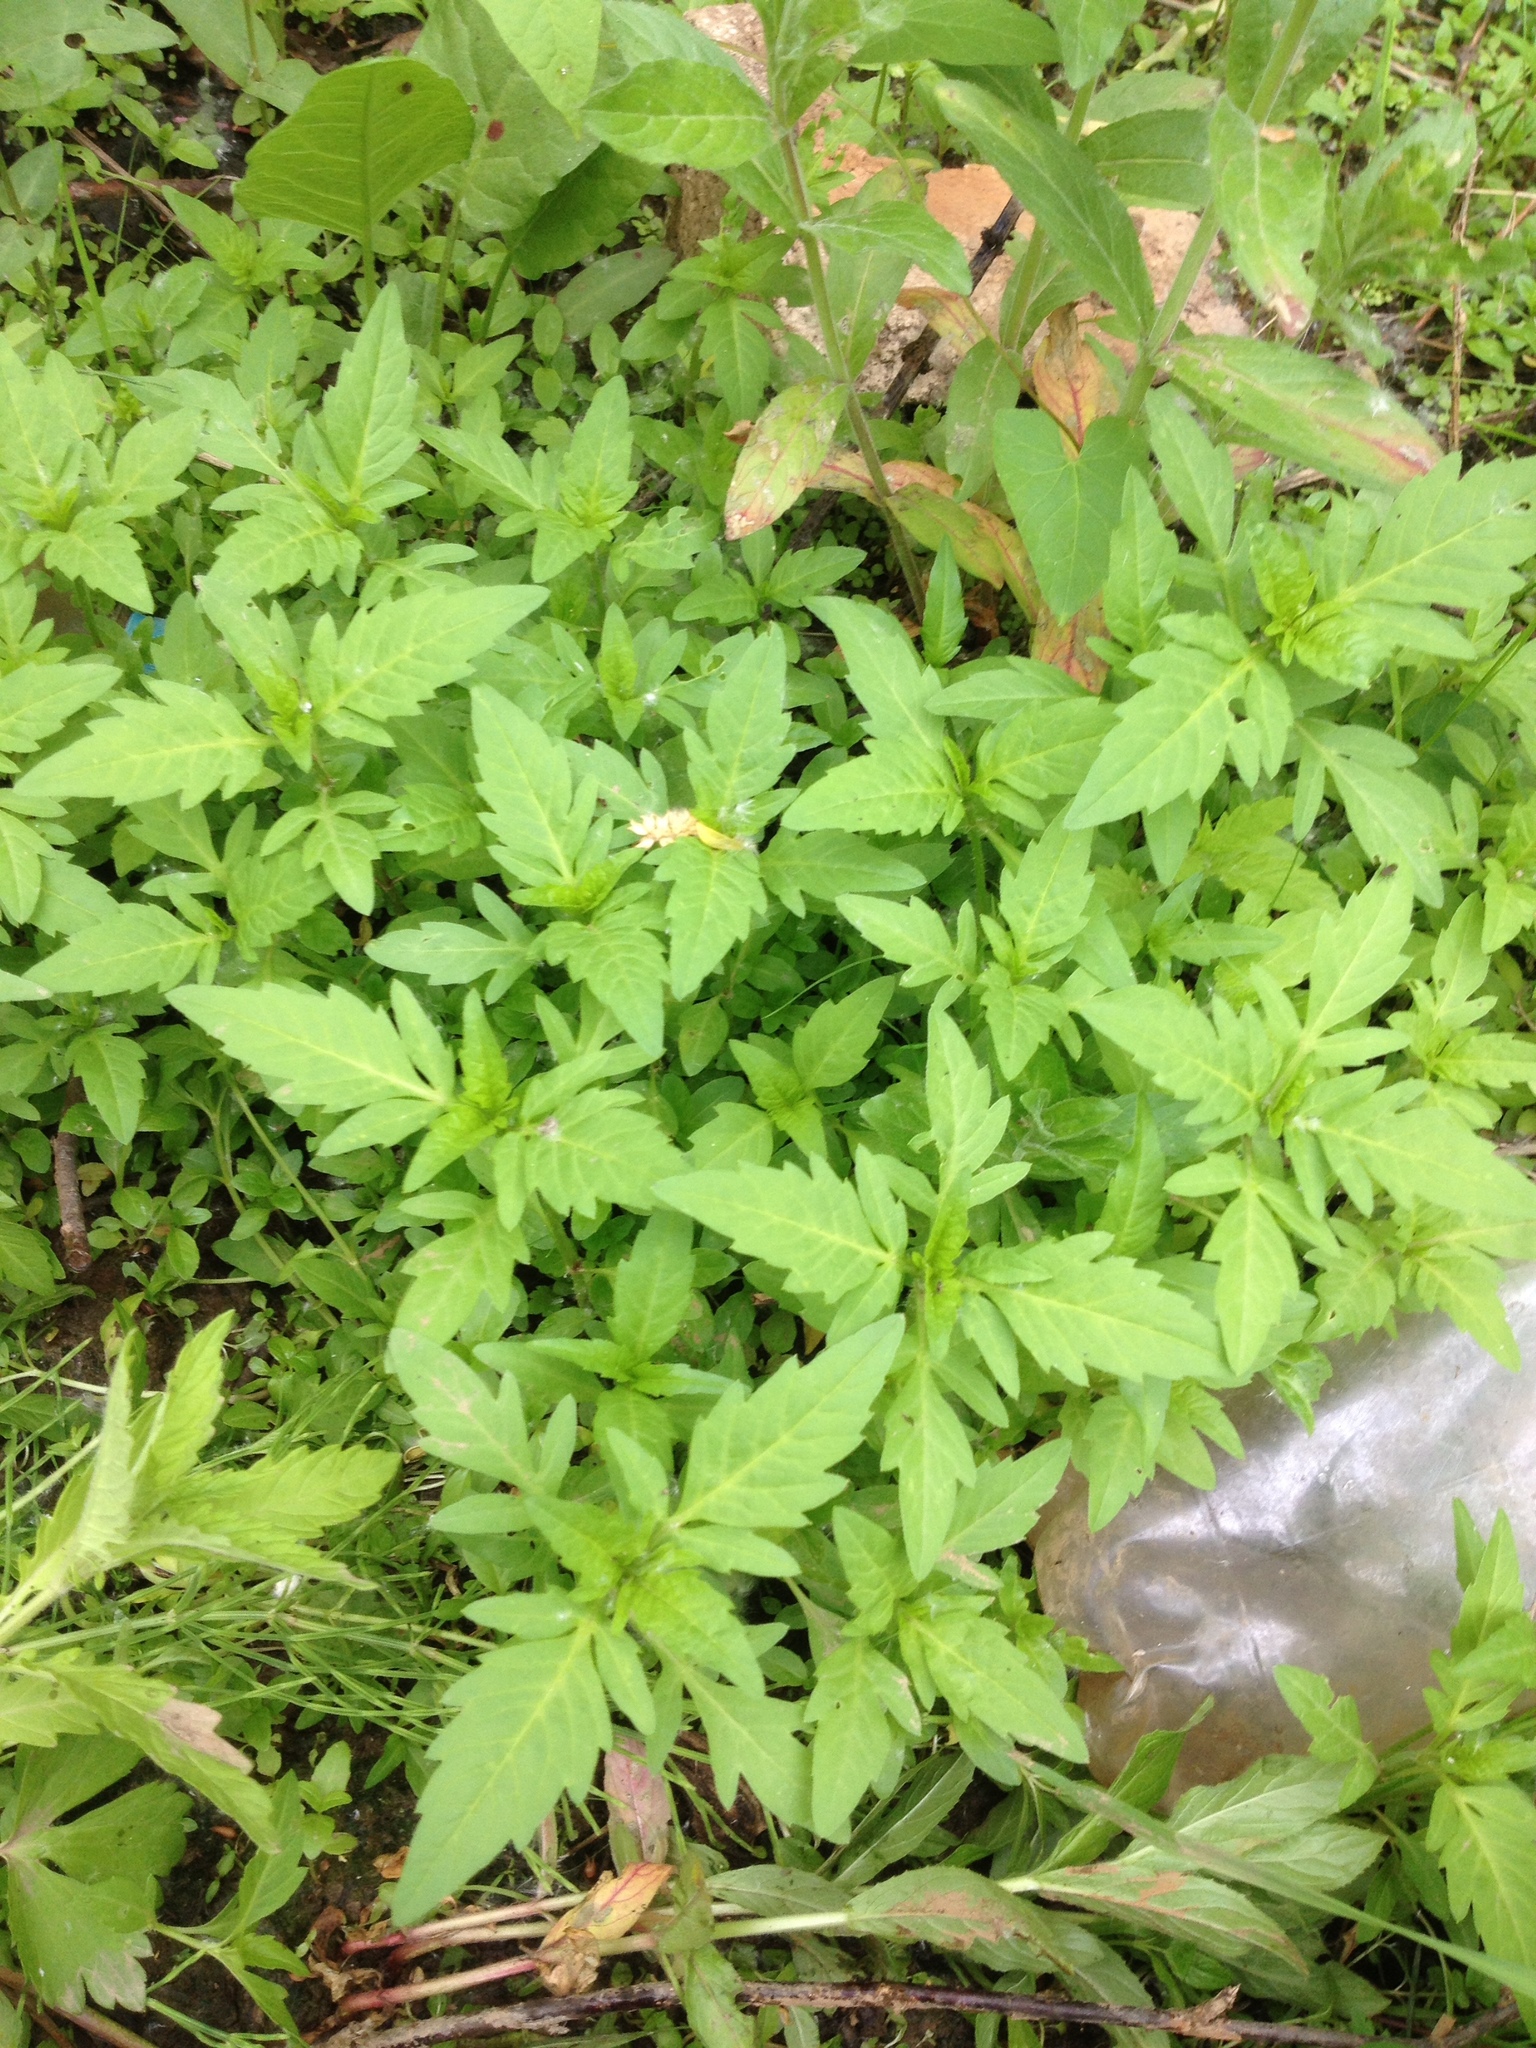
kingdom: Plantae
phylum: Tracheophyta
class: Magnoliopsida
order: Asterales
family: Asteraceae
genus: Bidens
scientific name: Bidens tripartita
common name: Trifid bur-marigold
